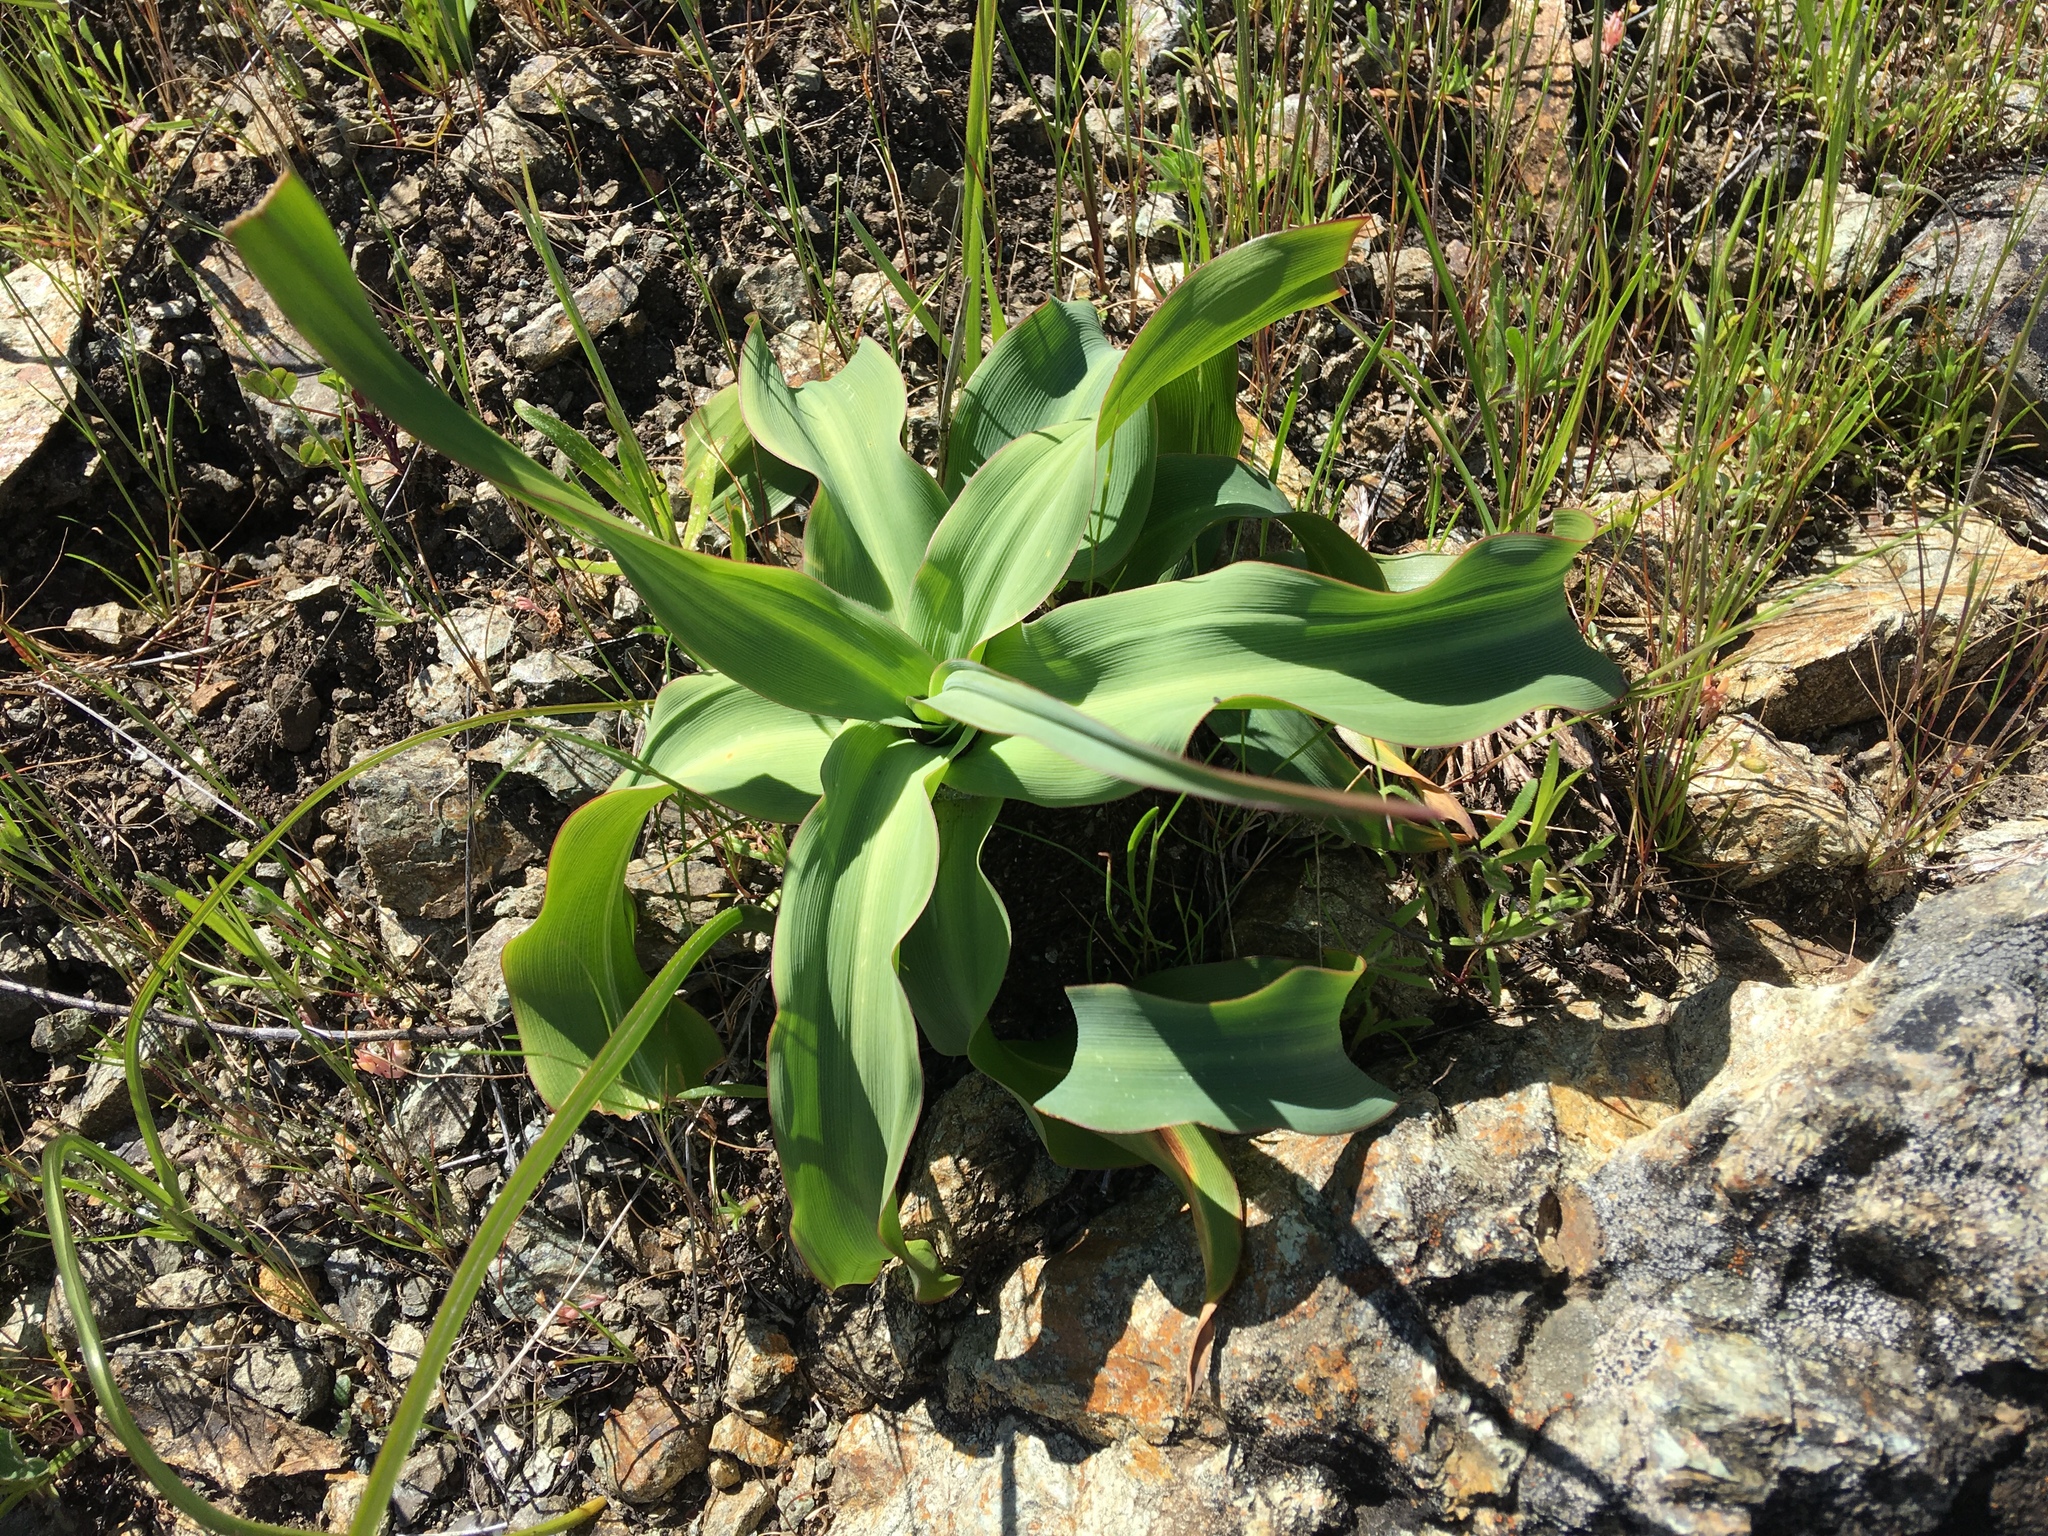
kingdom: Plantae
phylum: Tracheophyta
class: Liliopsida
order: Asparagales
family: Asparagaceae
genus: Chlorogalum
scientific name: Chlorogalum pomeridianum
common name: Amole
